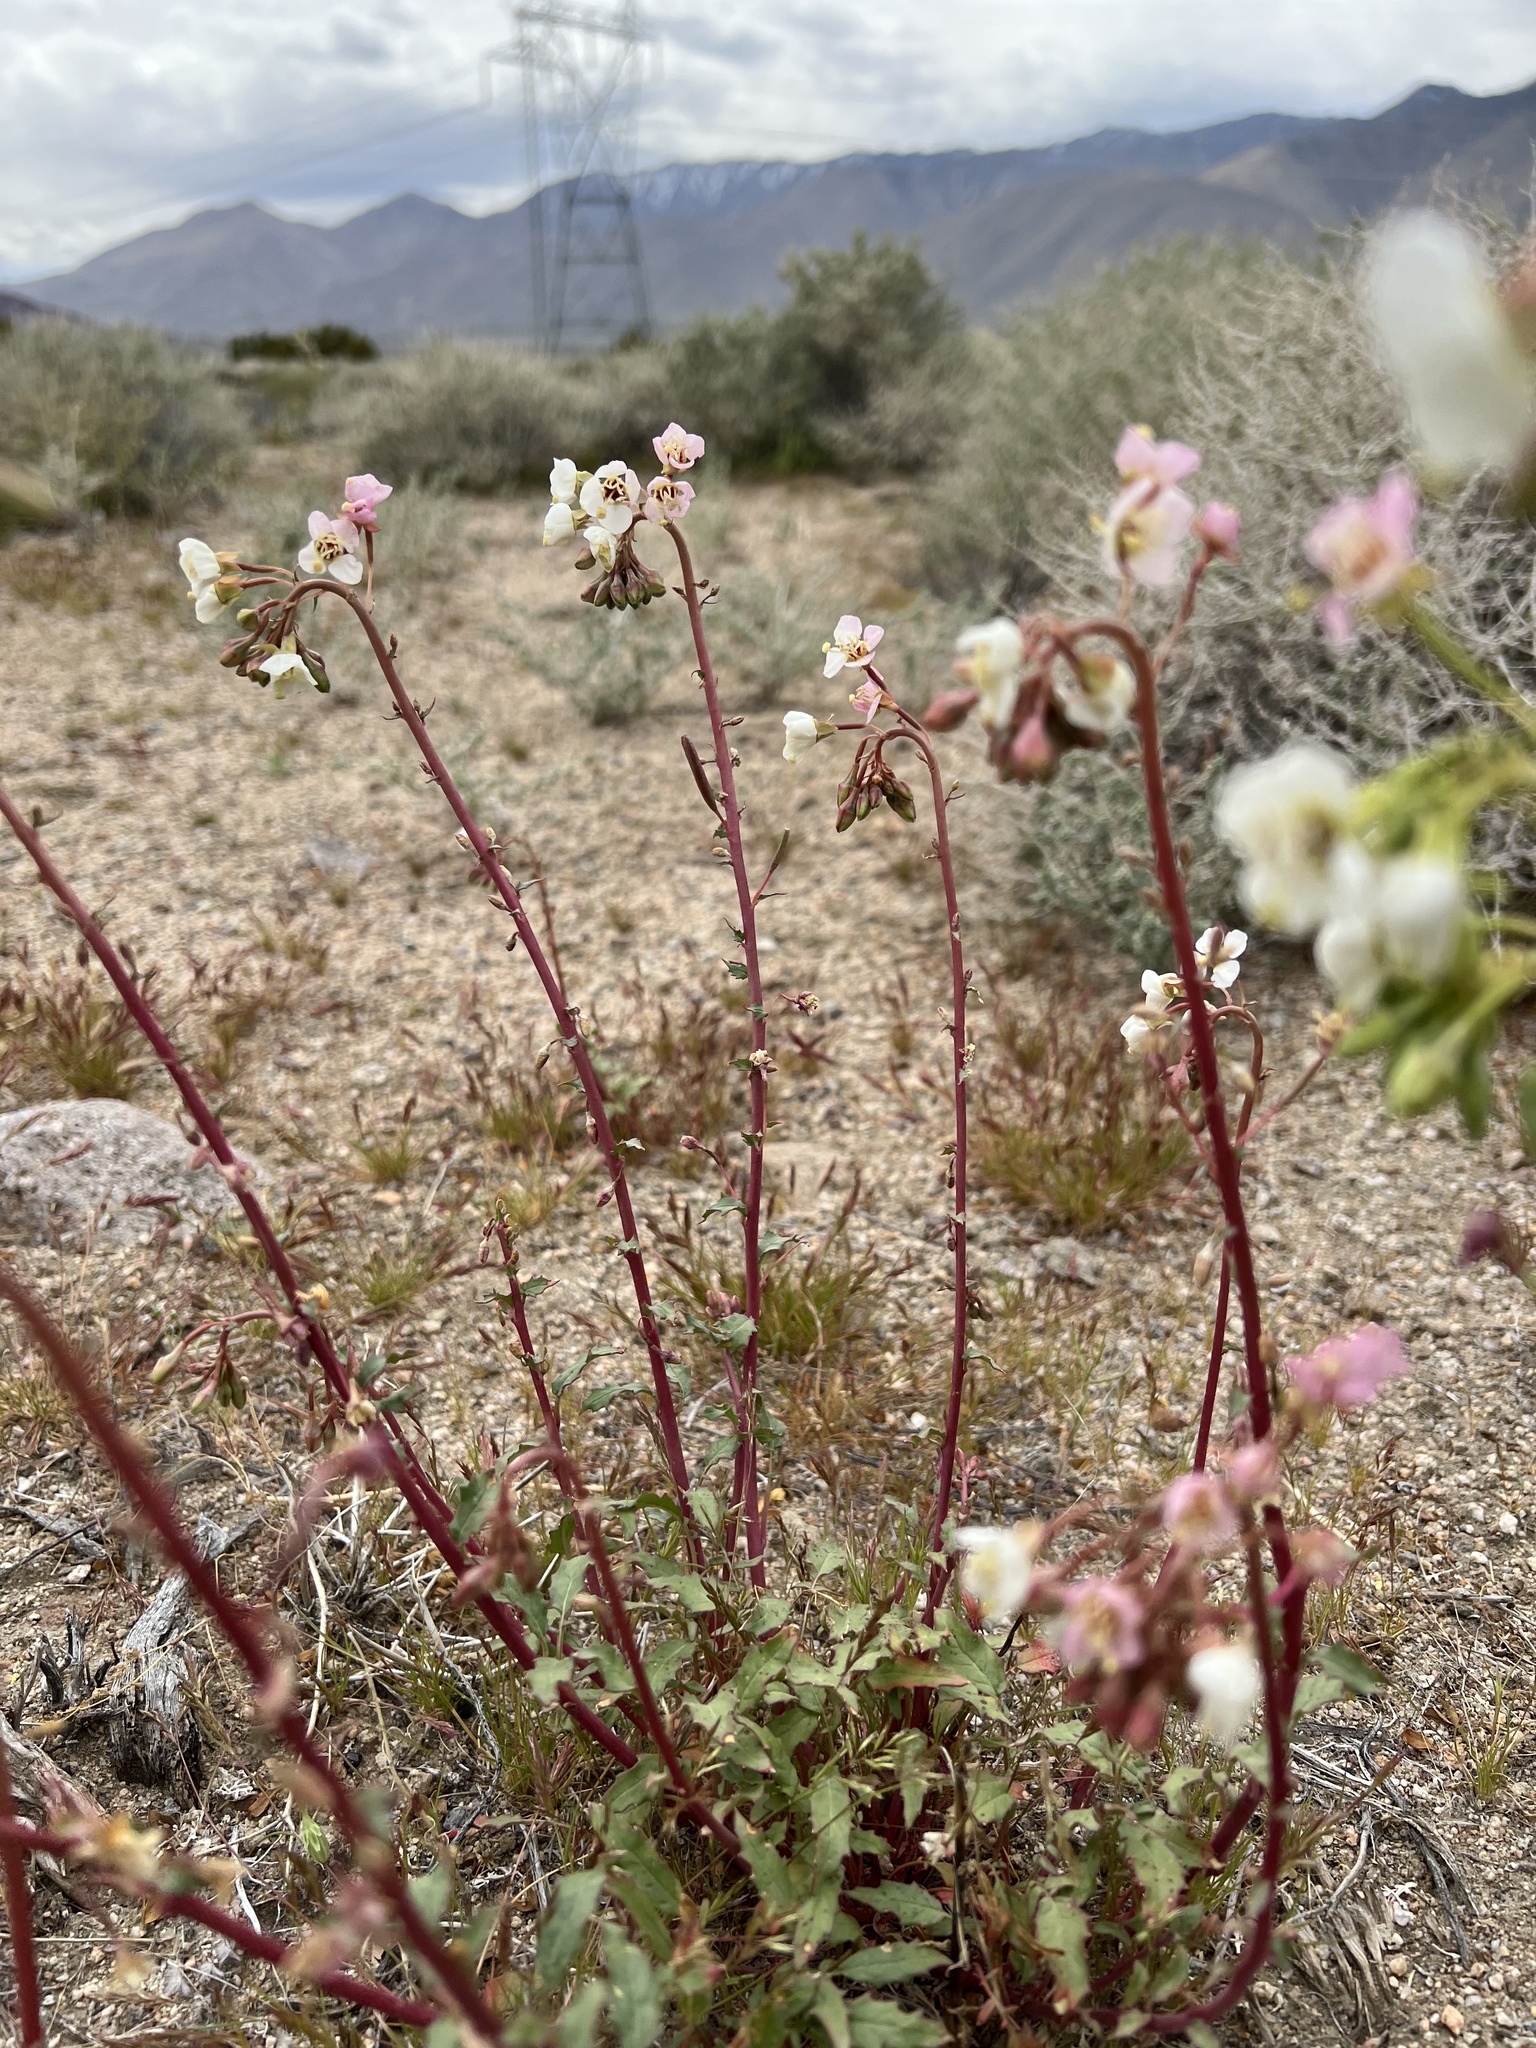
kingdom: Plantae
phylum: Tracheophyta
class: Magnoliopsida
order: Myrtales
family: Onagraceae
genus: Chylismia
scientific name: Chylismia claviformis
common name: Browneyes
